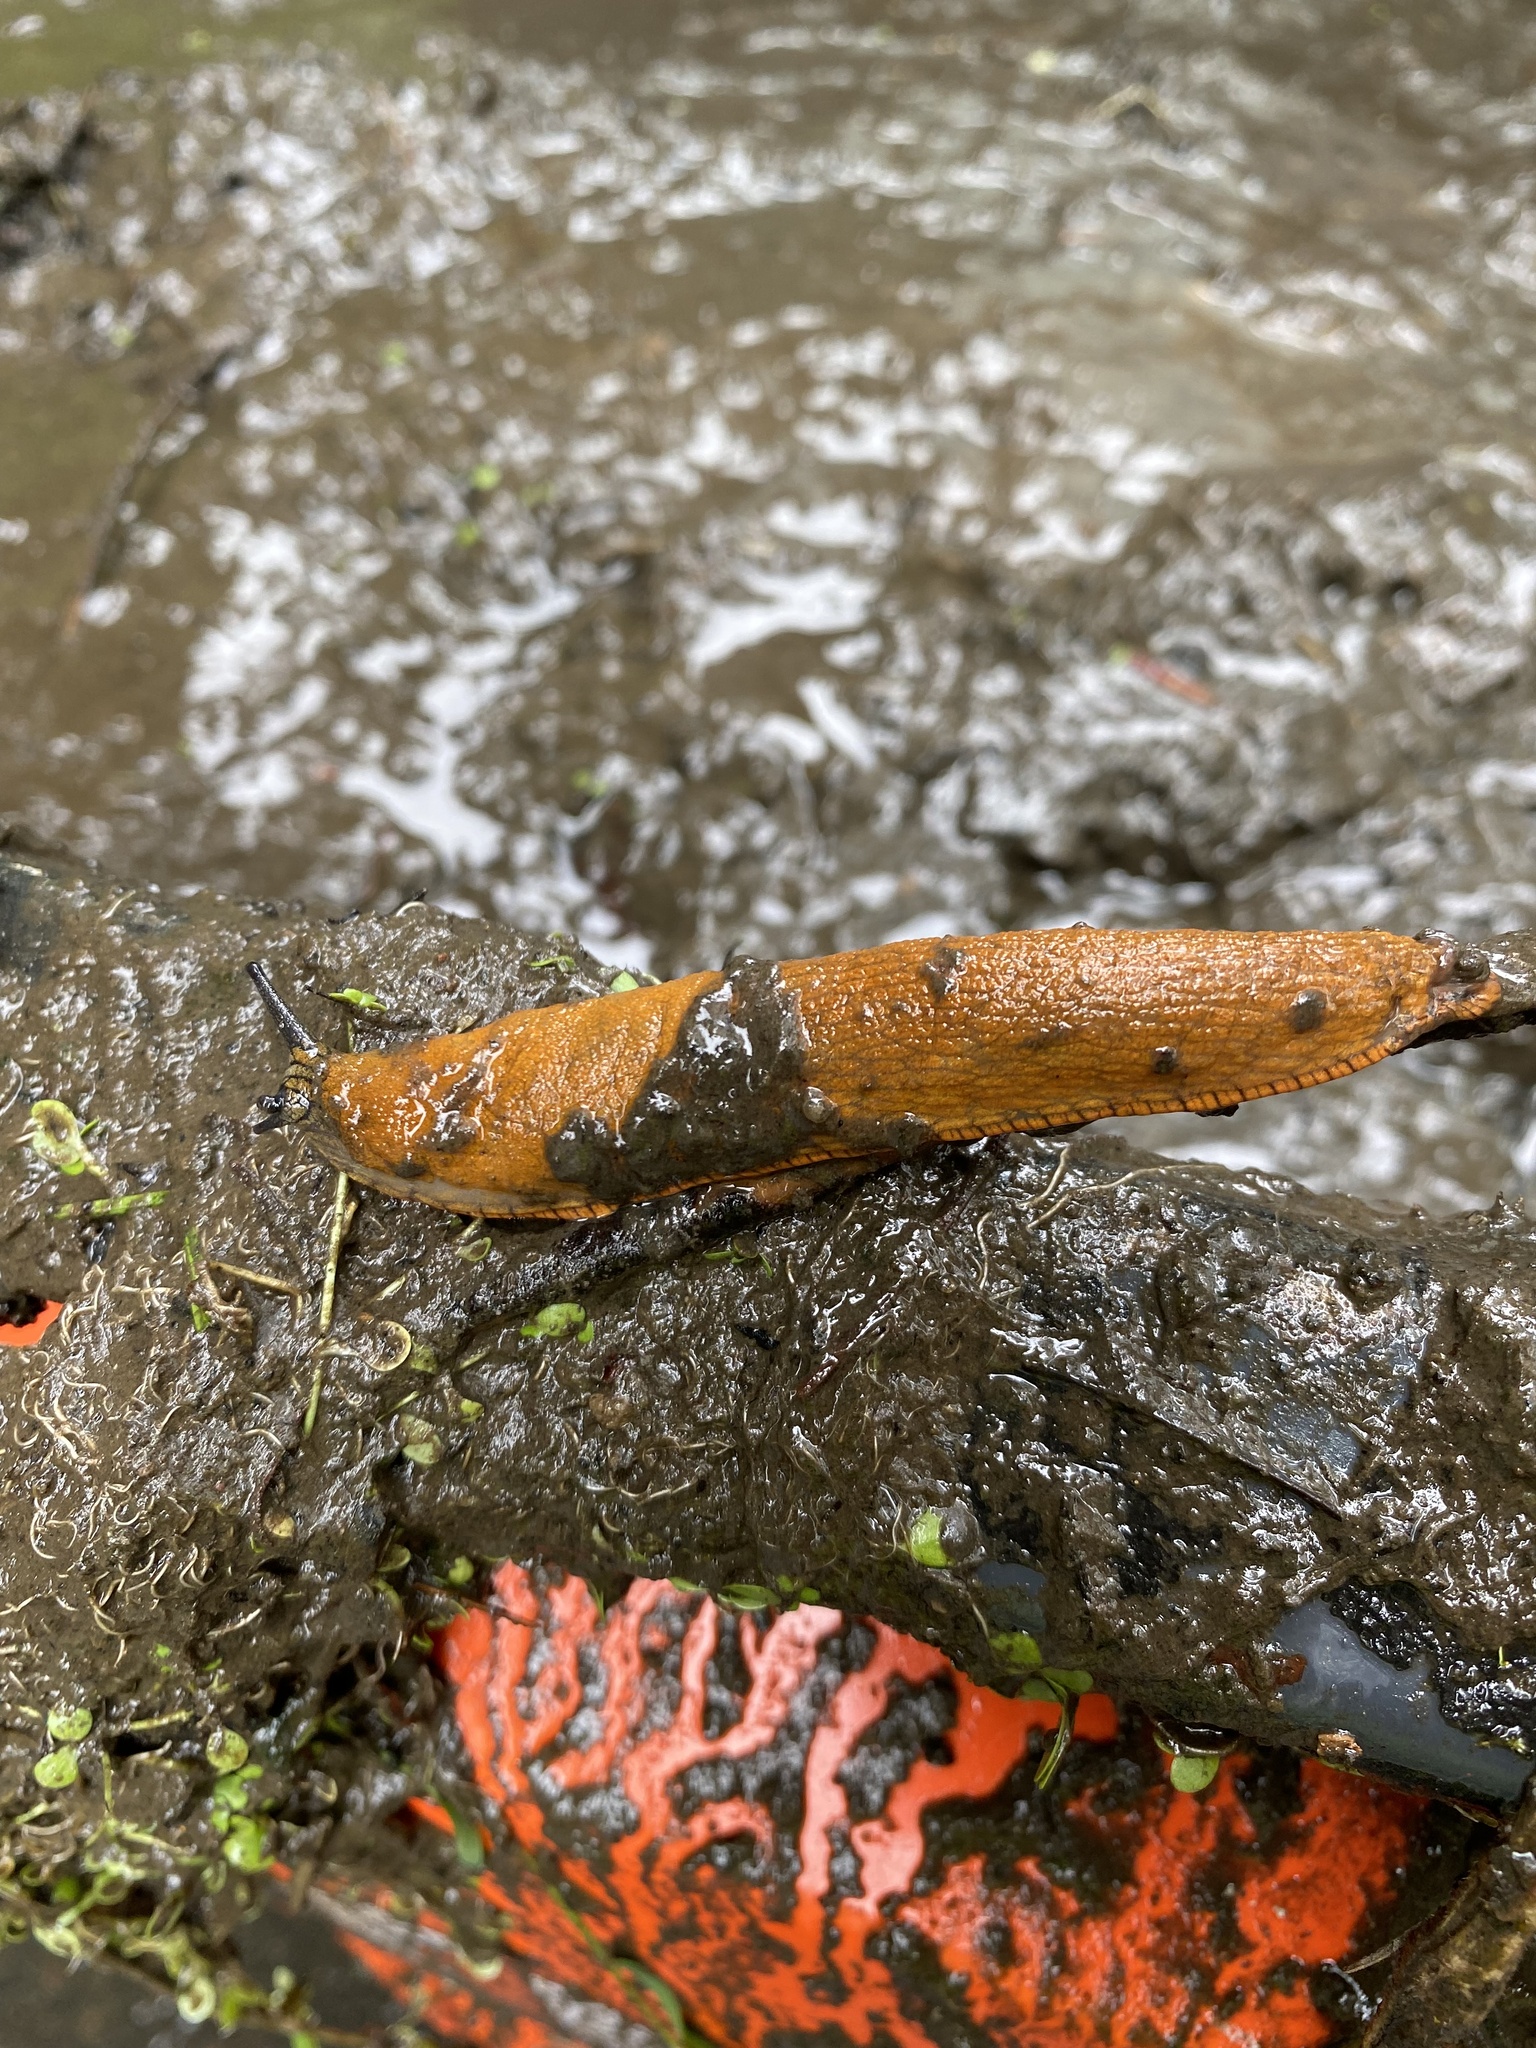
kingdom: Animalia
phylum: Mollusca
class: Gastropoda
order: Stylommatophora
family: Arionidae
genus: Arion
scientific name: Arion rufus
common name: Chocolate arion
